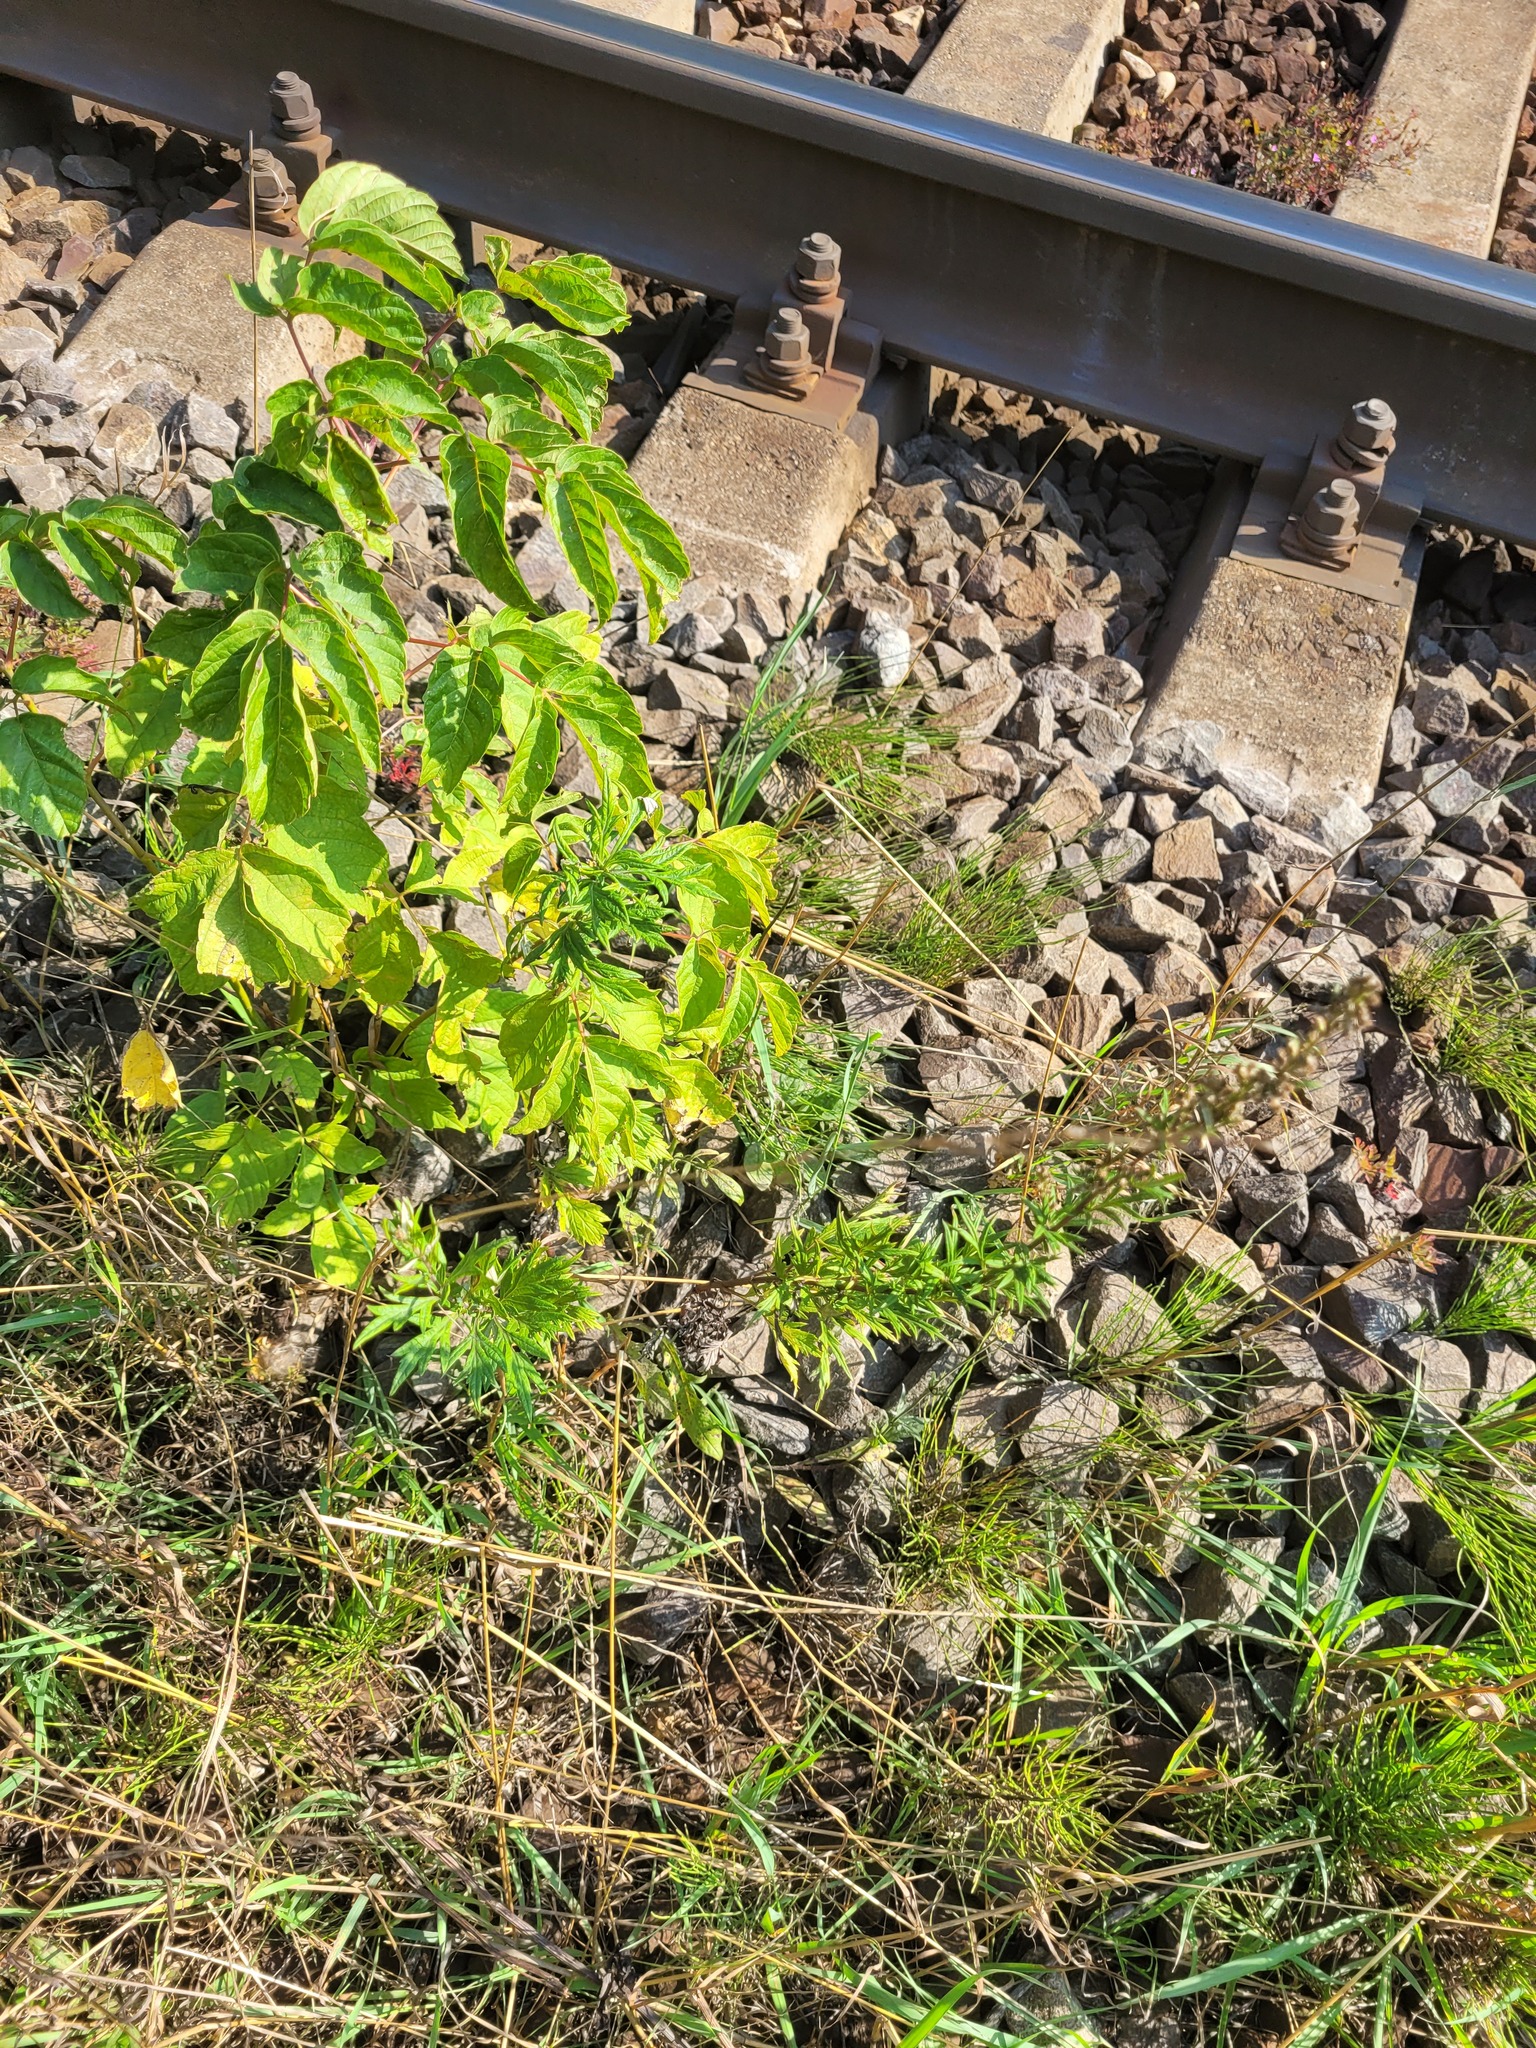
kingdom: Plantae
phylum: Tracheophyta
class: Magnoliopsida
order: Sapindales
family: Sapindaceae
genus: Acer
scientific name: Acer negundo
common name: Ashleaf maple
